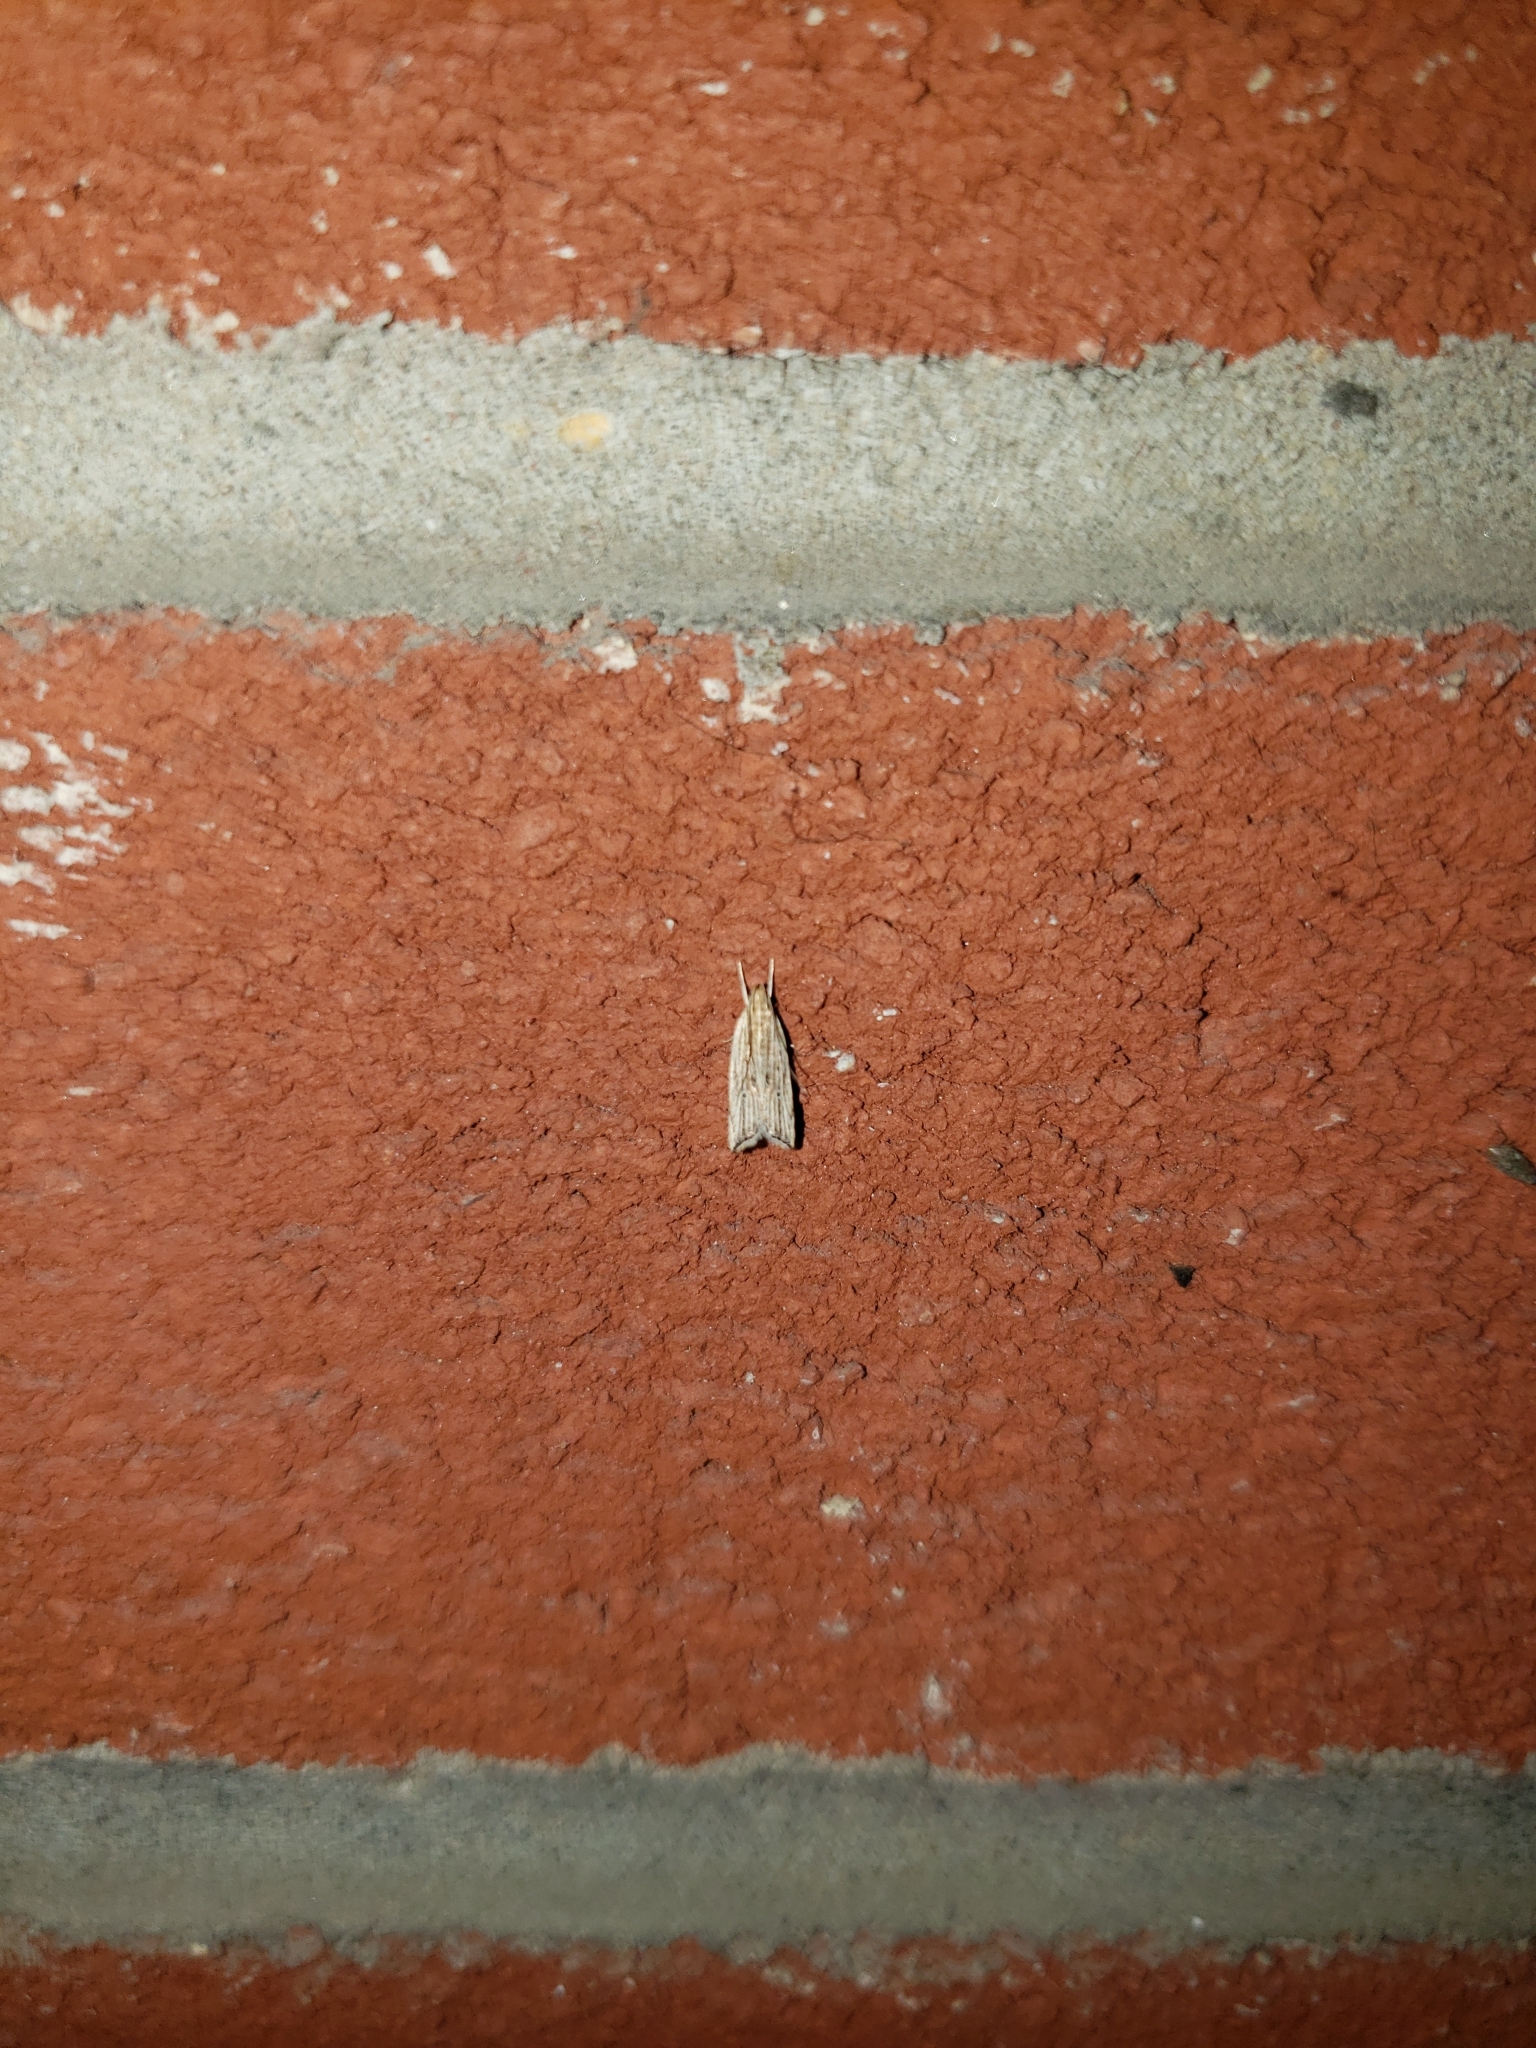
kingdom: Animalia
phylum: Arthropoda
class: Insecta
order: Lepidoptera
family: Gelechiidae
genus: Helcystogramma
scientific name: Helcystogramma hystricella
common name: Lanceolate moth
